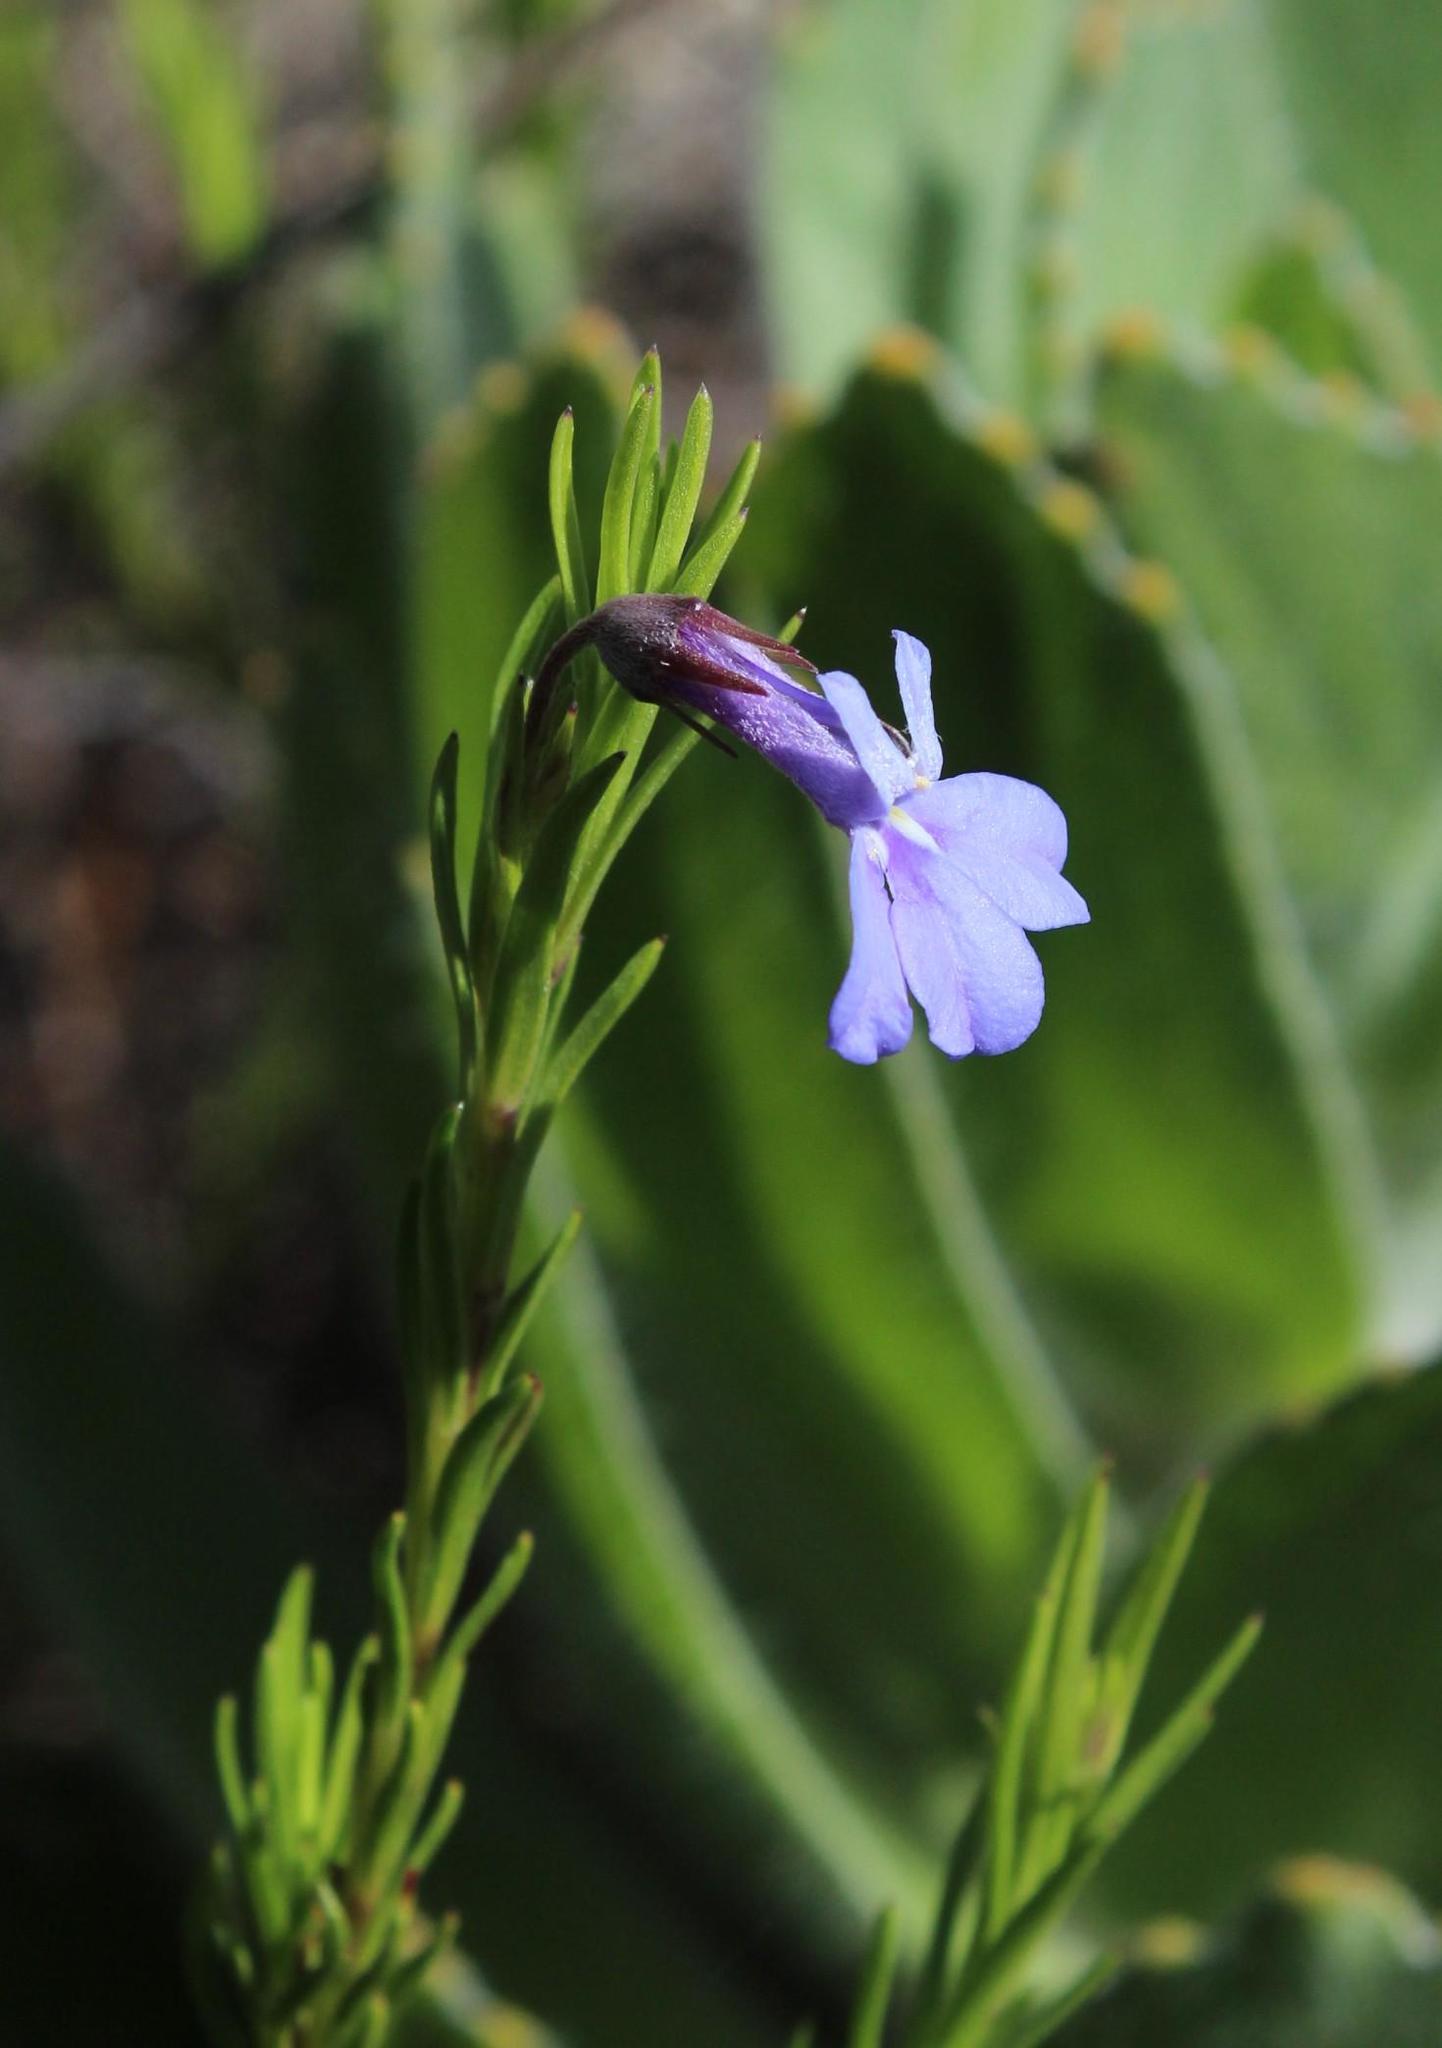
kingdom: Plantae
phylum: Tracheophyta
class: Magnoliopsida
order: Asterales
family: Campanulaceae
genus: Lobelia
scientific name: Lobelia pinifolia
